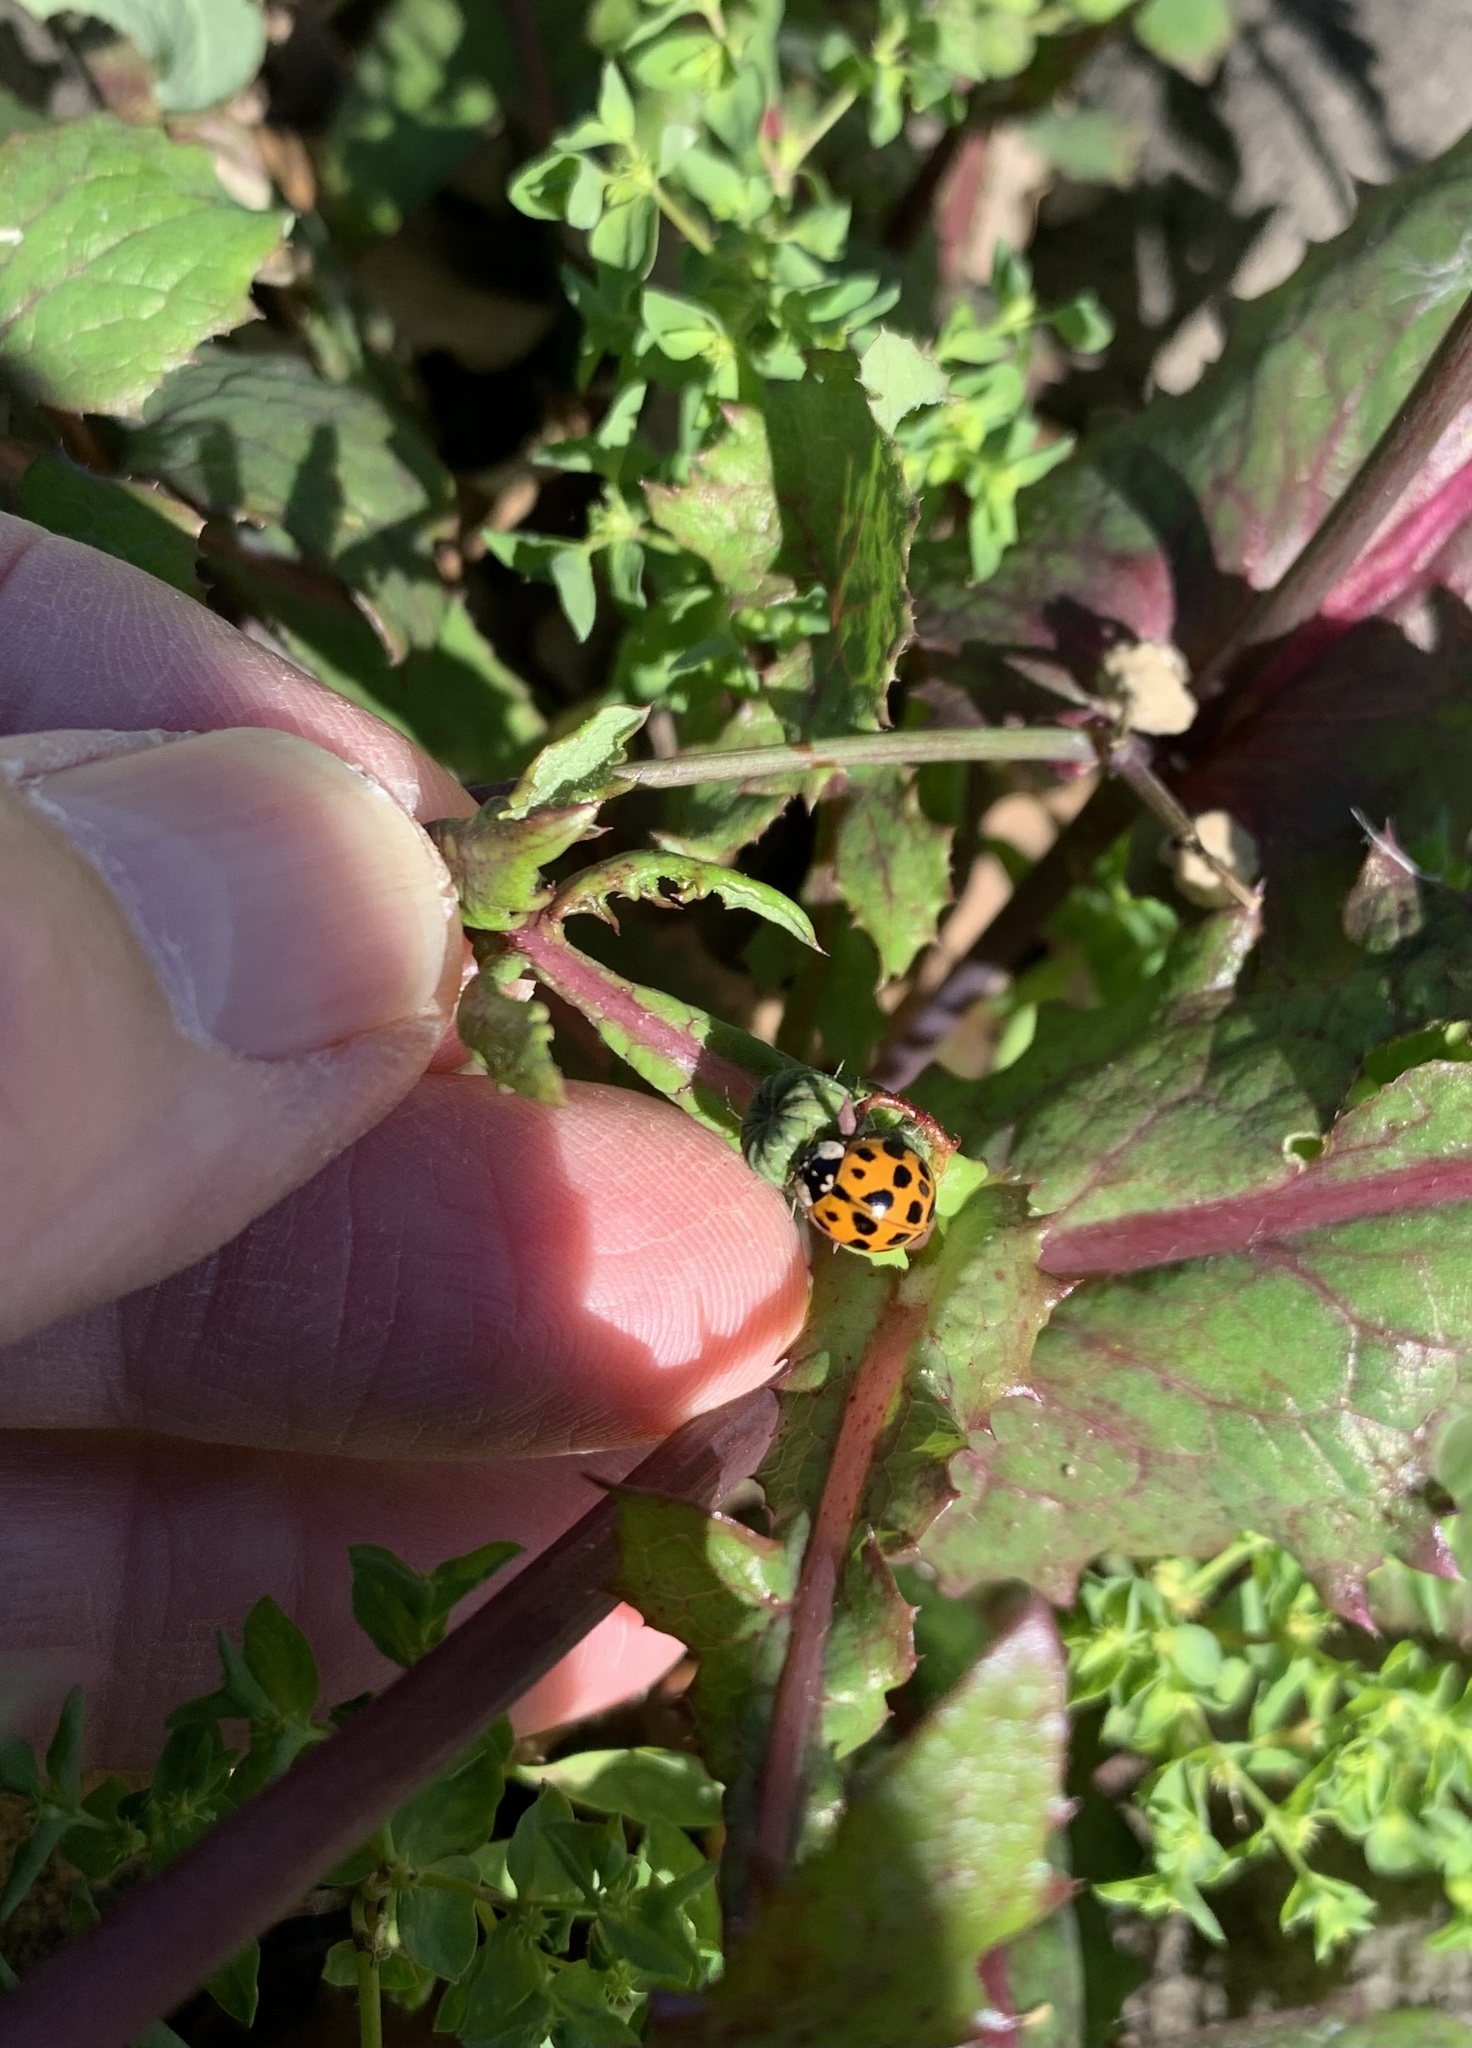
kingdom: Animalia
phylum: Arthropoda
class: Insecta
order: Coleoptera
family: Coccinellidae
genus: Harmonia
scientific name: Harmonia axyridis
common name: Harlequin ladybird
